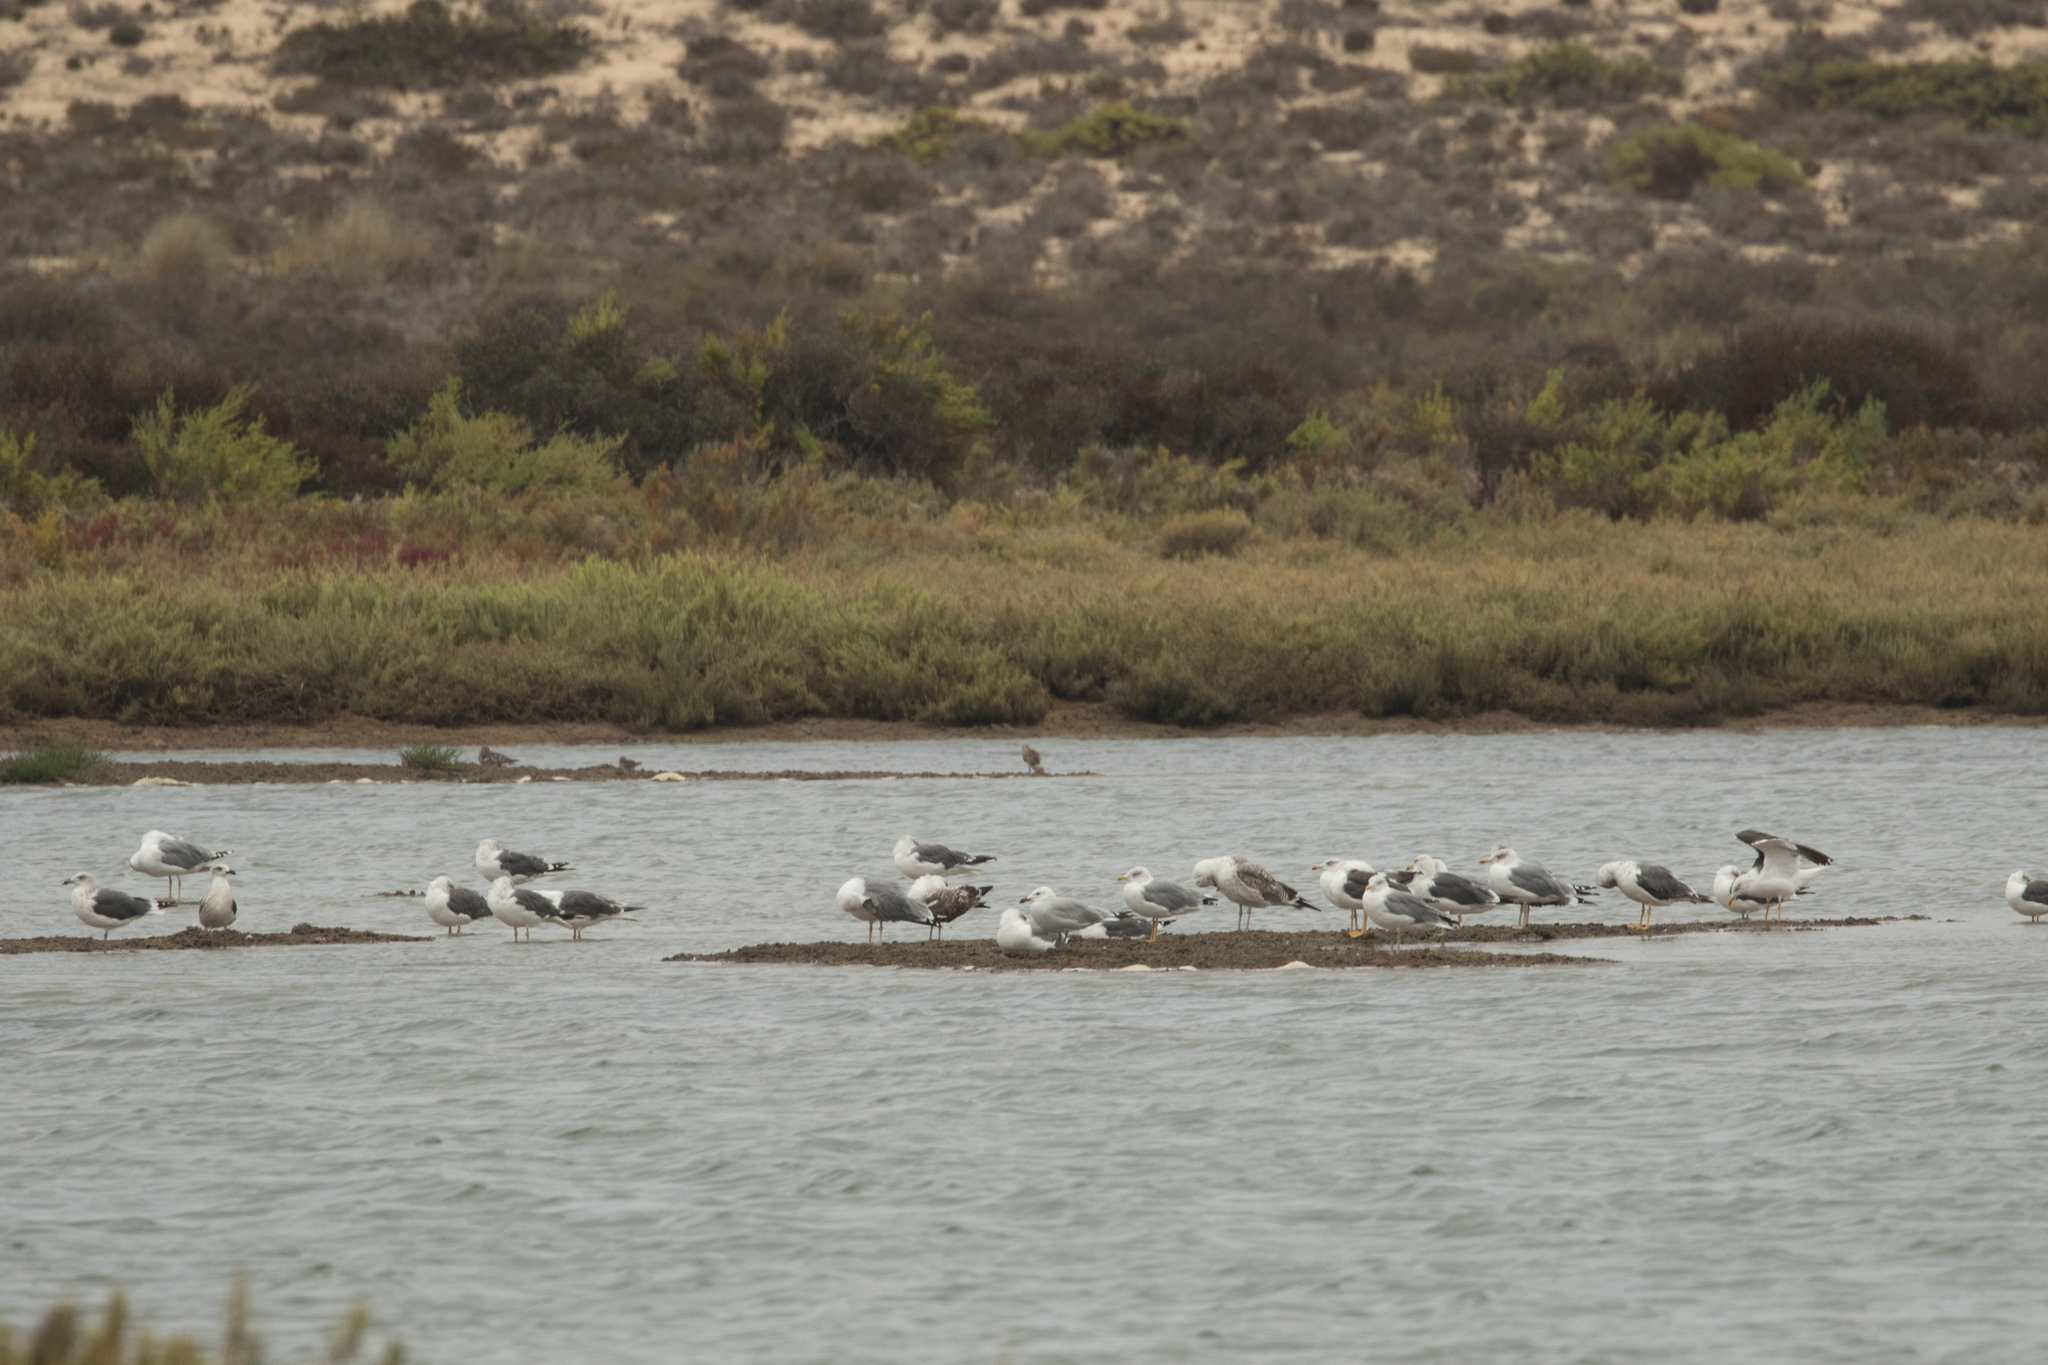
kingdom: Animalia
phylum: Chordata
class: Aves
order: Charadriiformes
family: Laridae
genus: Ichthyaetus
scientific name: Ichthyaetus audouinii
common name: Audouin's gull
